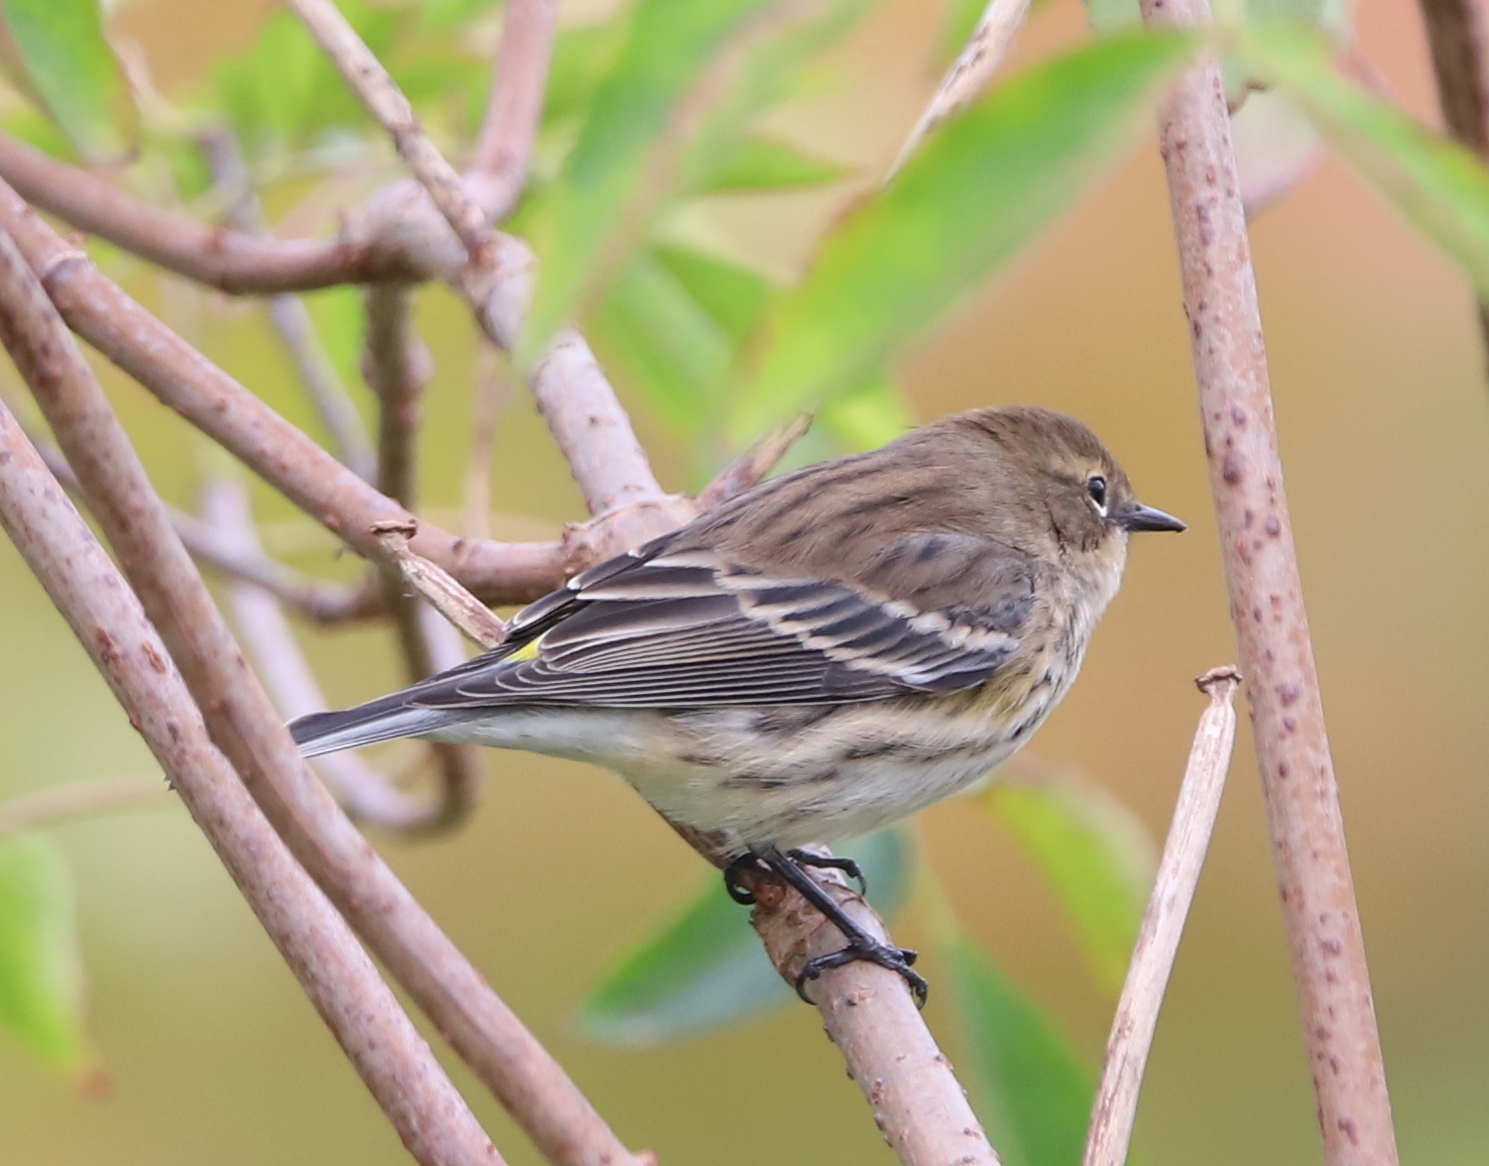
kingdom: Animalia
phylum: Chordata
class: Aves
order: Passeriformes
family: Parulidae
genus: Setophaga
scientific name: Setophaga coronata
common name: Myrtle warbler
